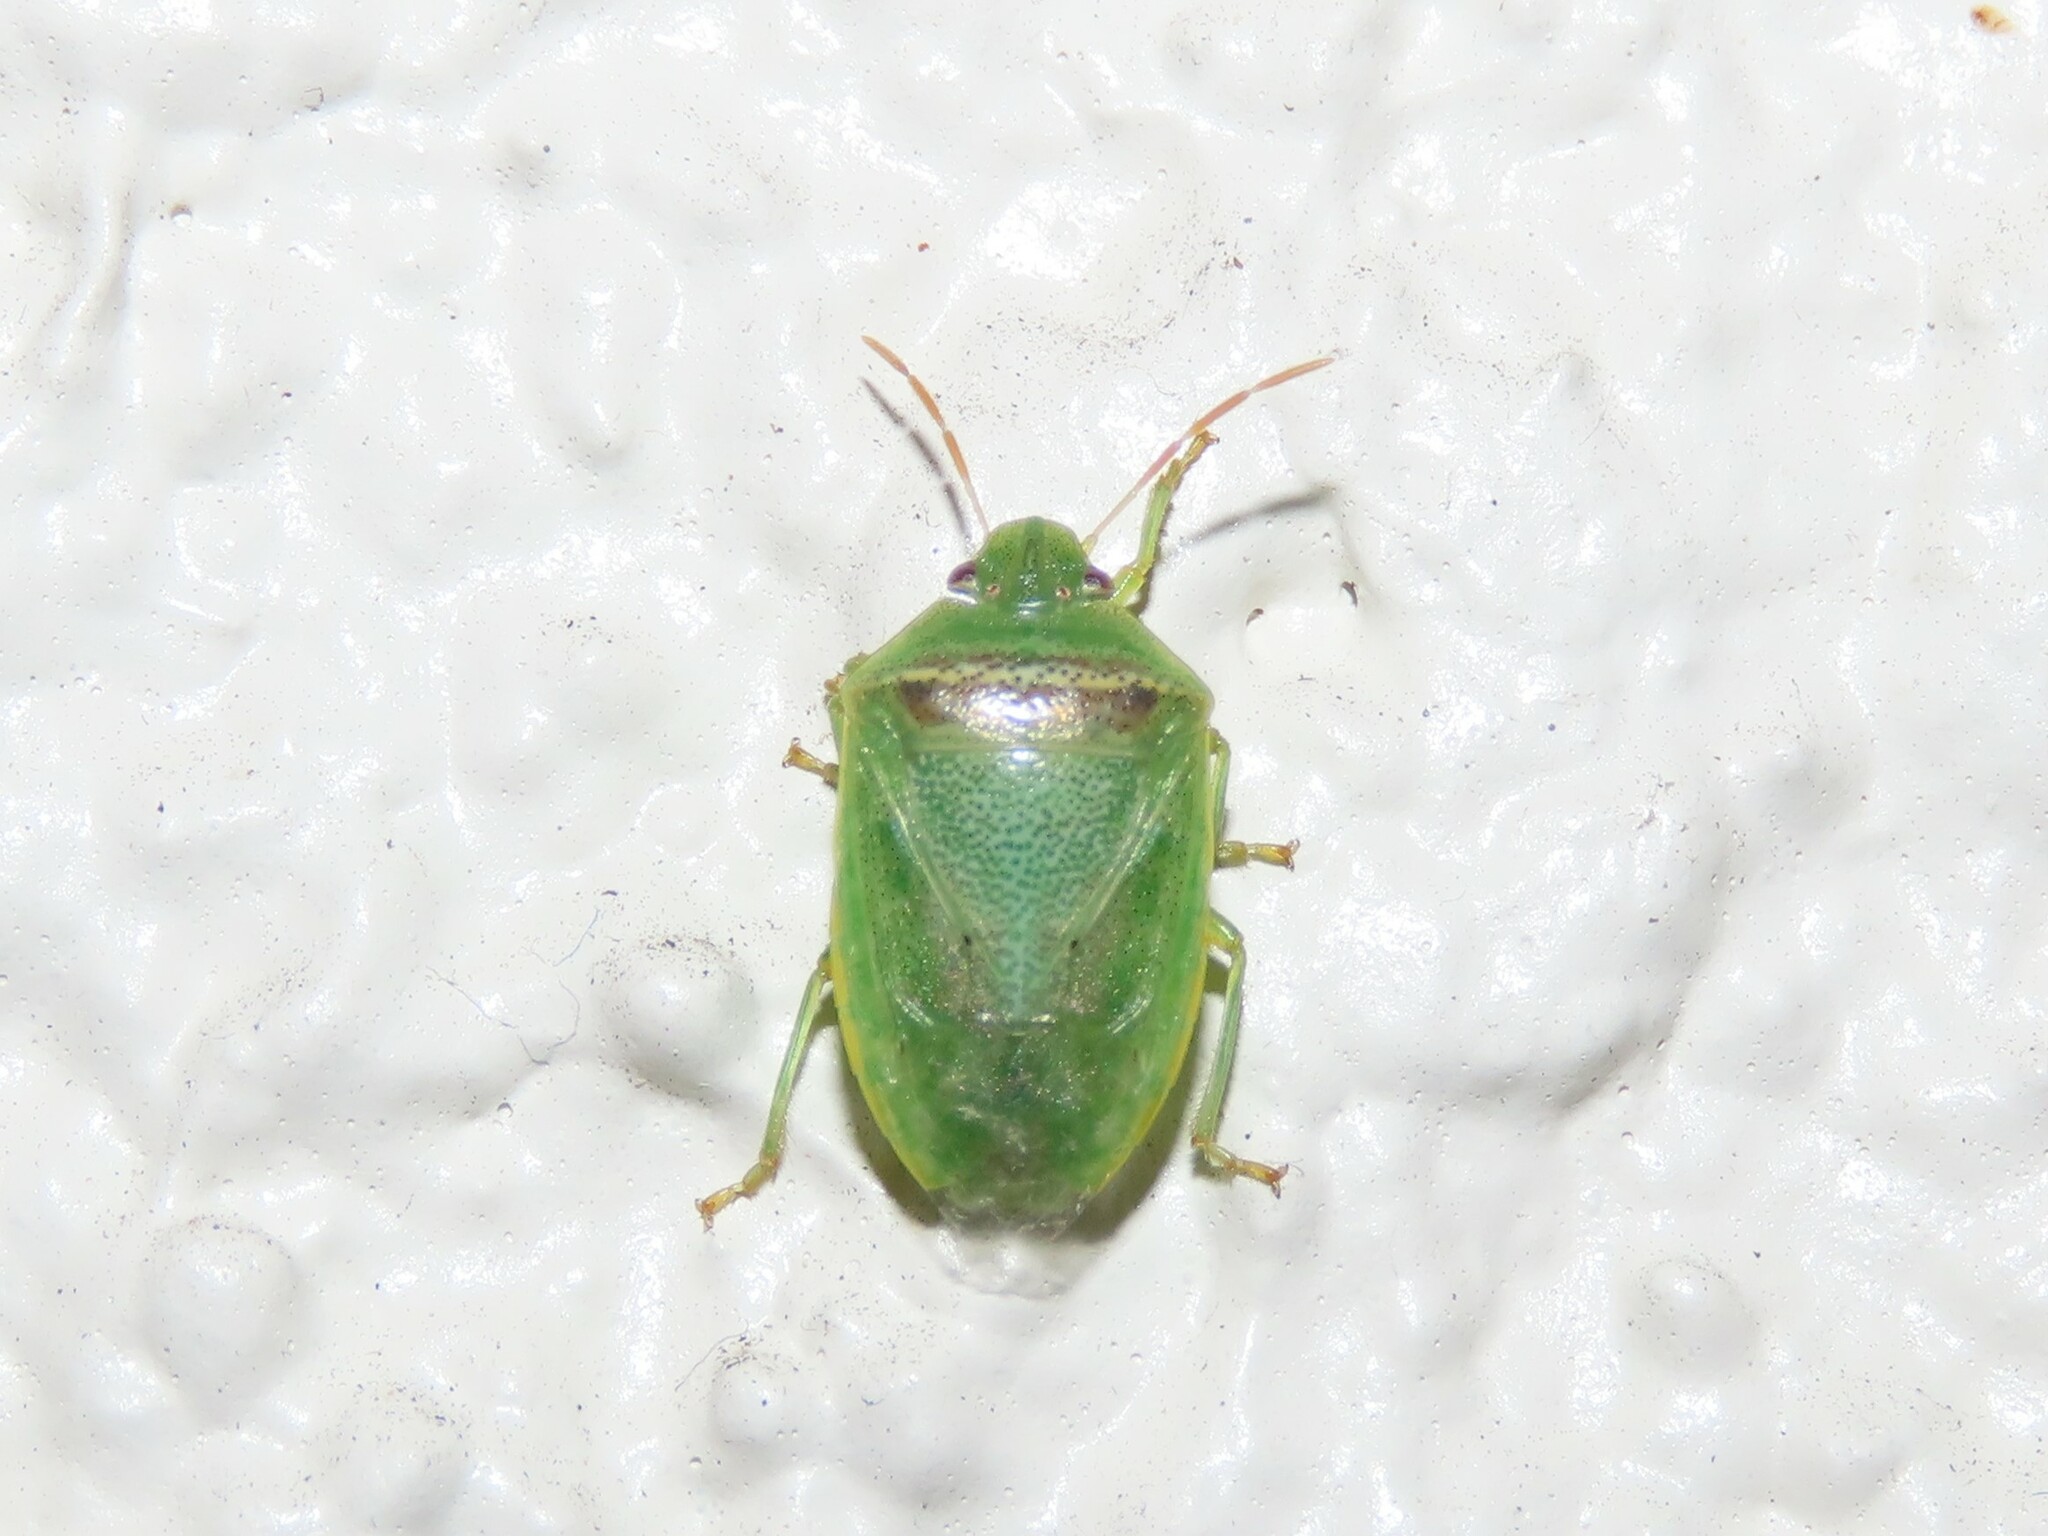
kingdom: Animalia
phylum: Arthropoda
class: Insecta
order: Hemiptera
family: Pentatomidae
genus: Piezodorus
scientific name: Piezodorus guildinii
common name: Redbanded stink bug
